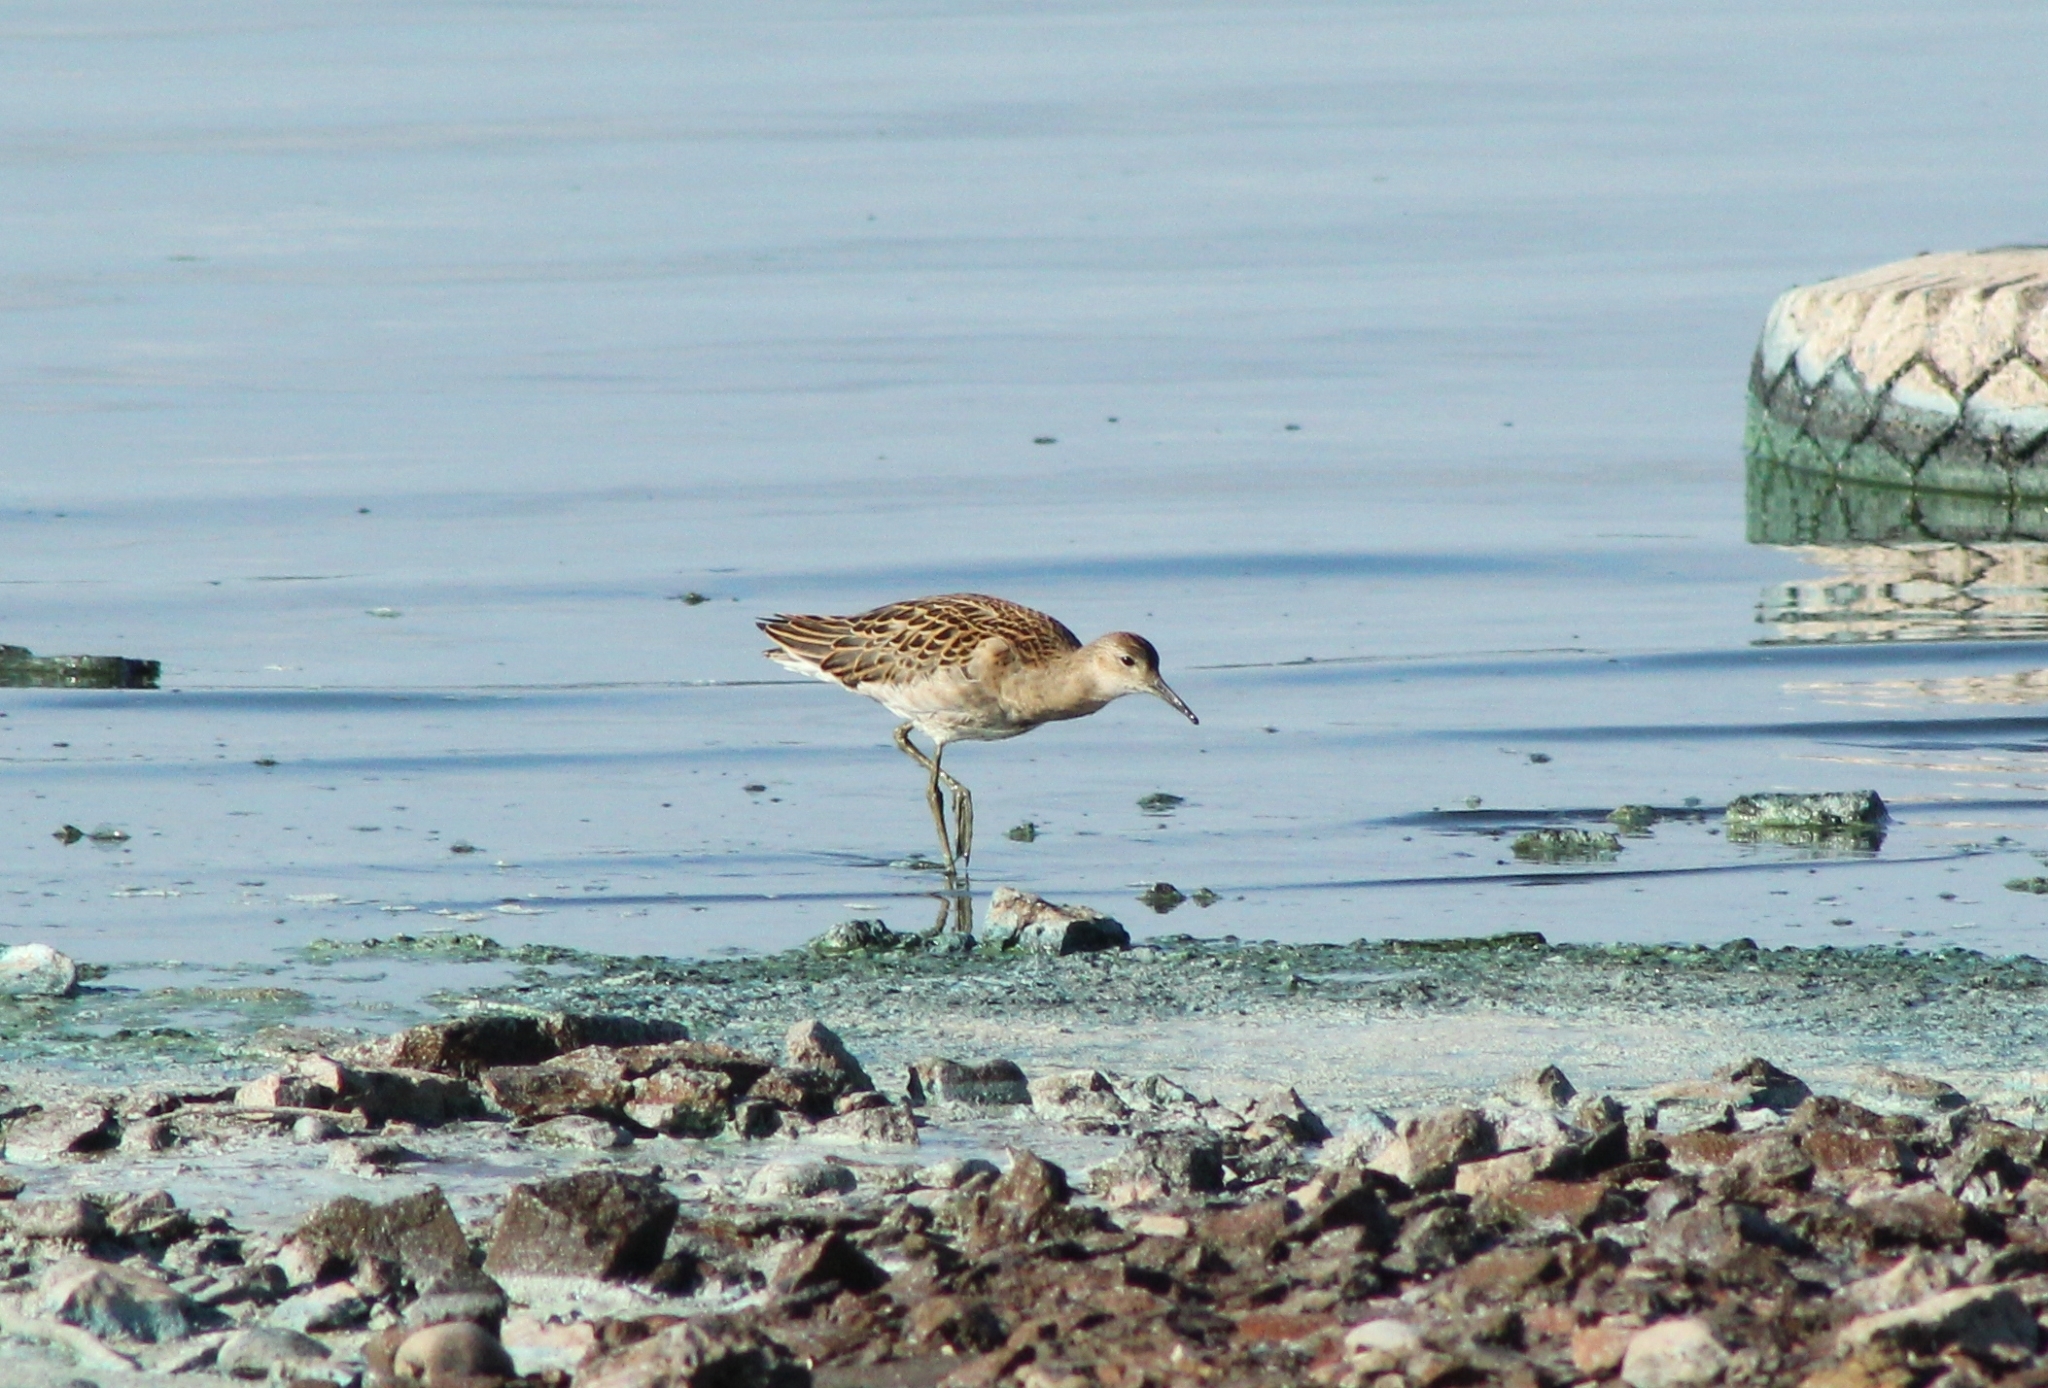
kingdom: Animalia
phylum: Chordata
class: Aves
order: Charadriiformes
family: Scolopacidae
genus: Calidris
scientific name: Calidris pugnax
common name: Ruff
